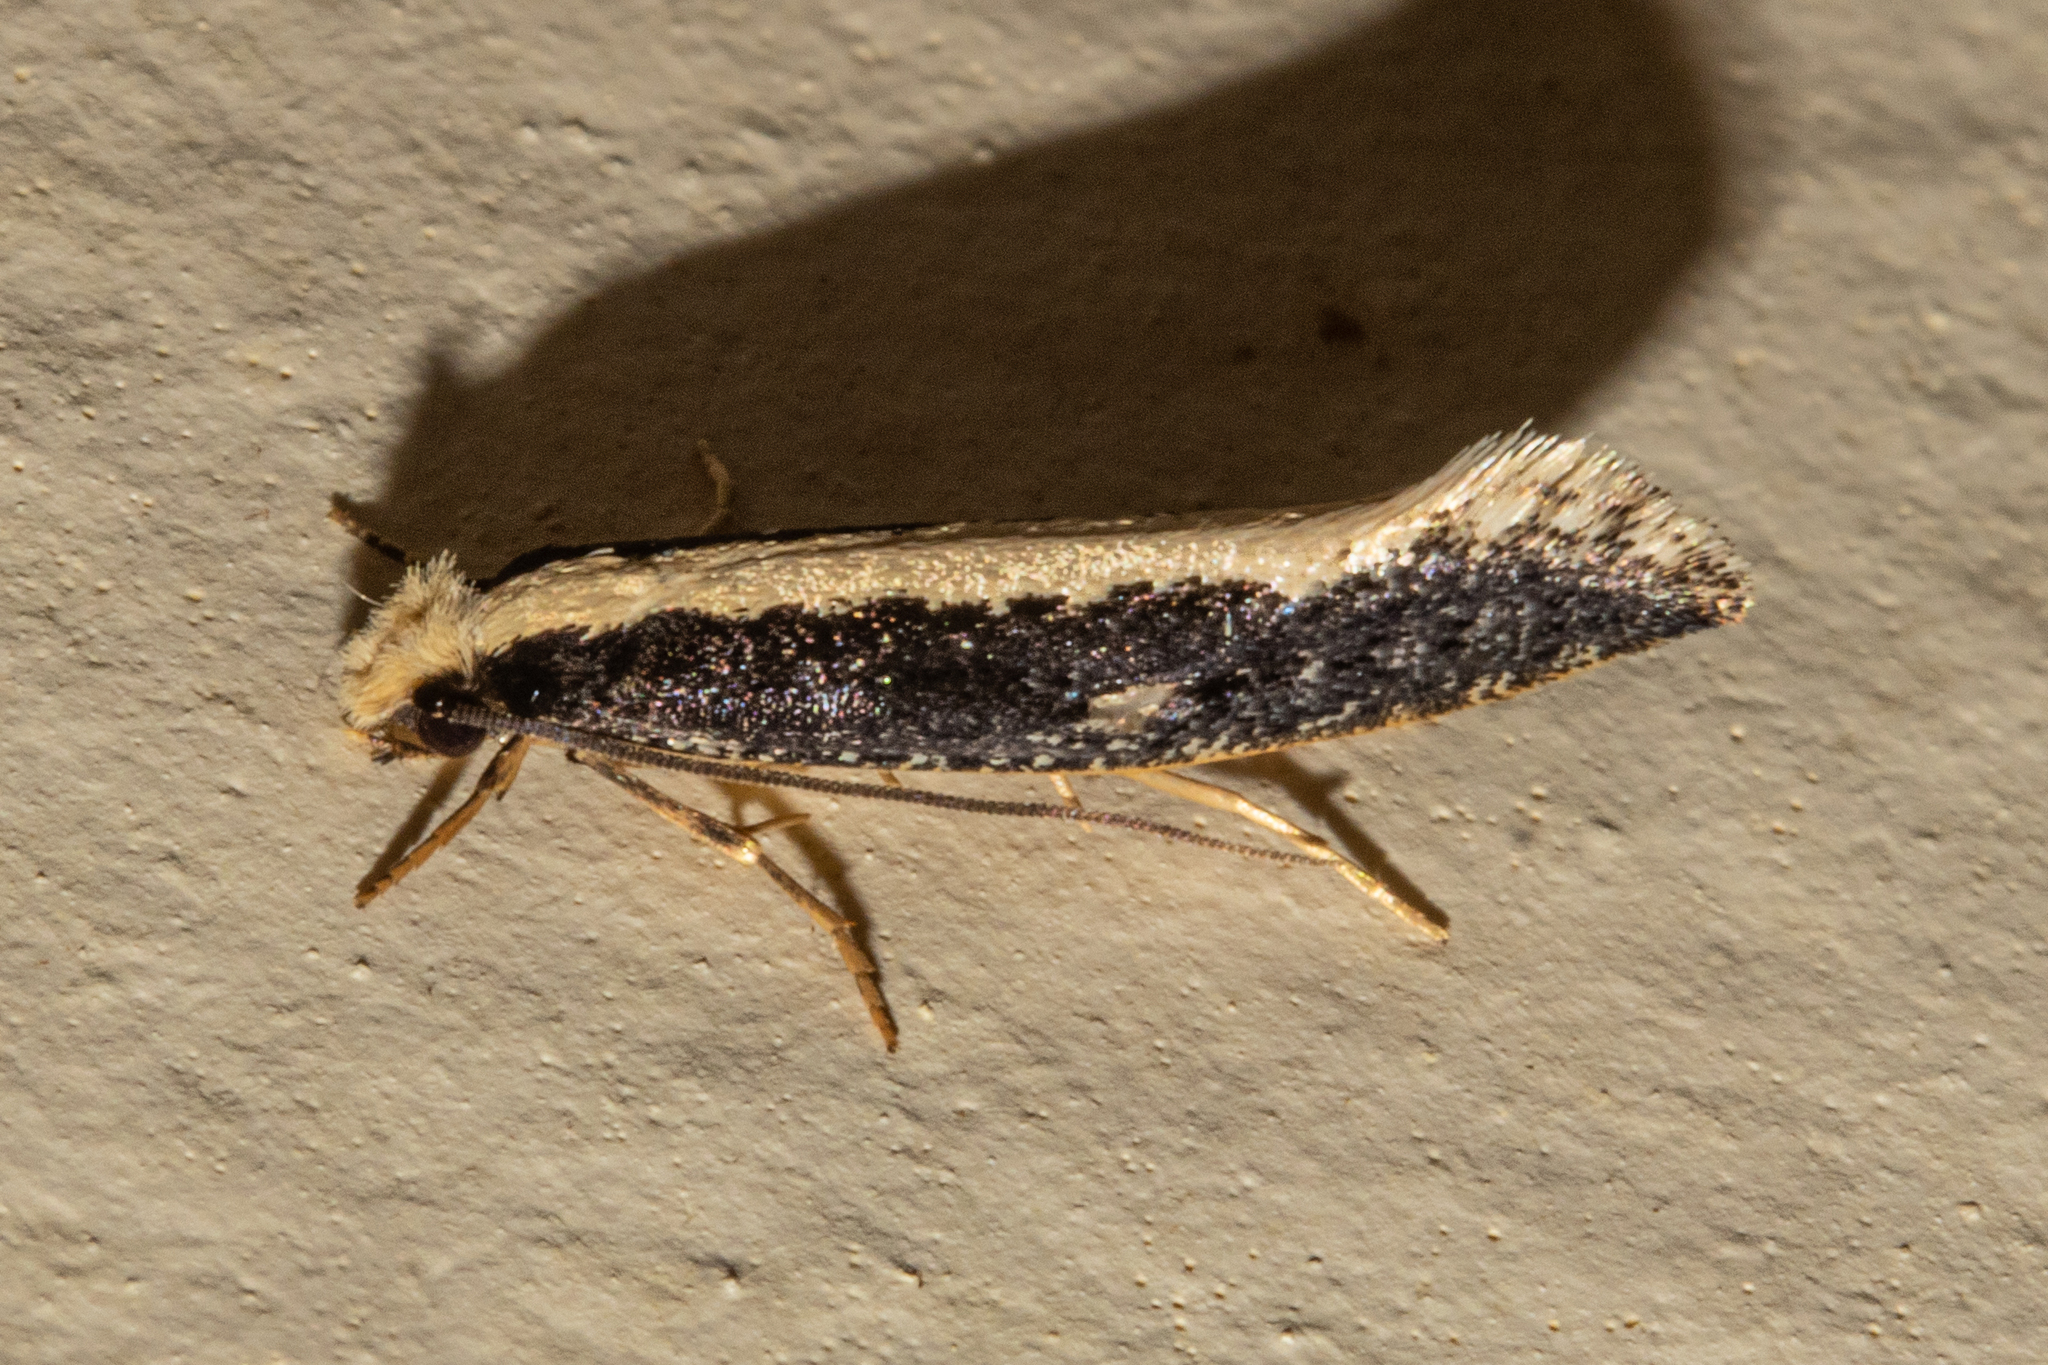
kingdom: Animalia
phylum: Arthropoda
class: Insecta
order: Lepidoptera
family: Tineidae
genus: Monopis
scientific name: Monopis ethelella
